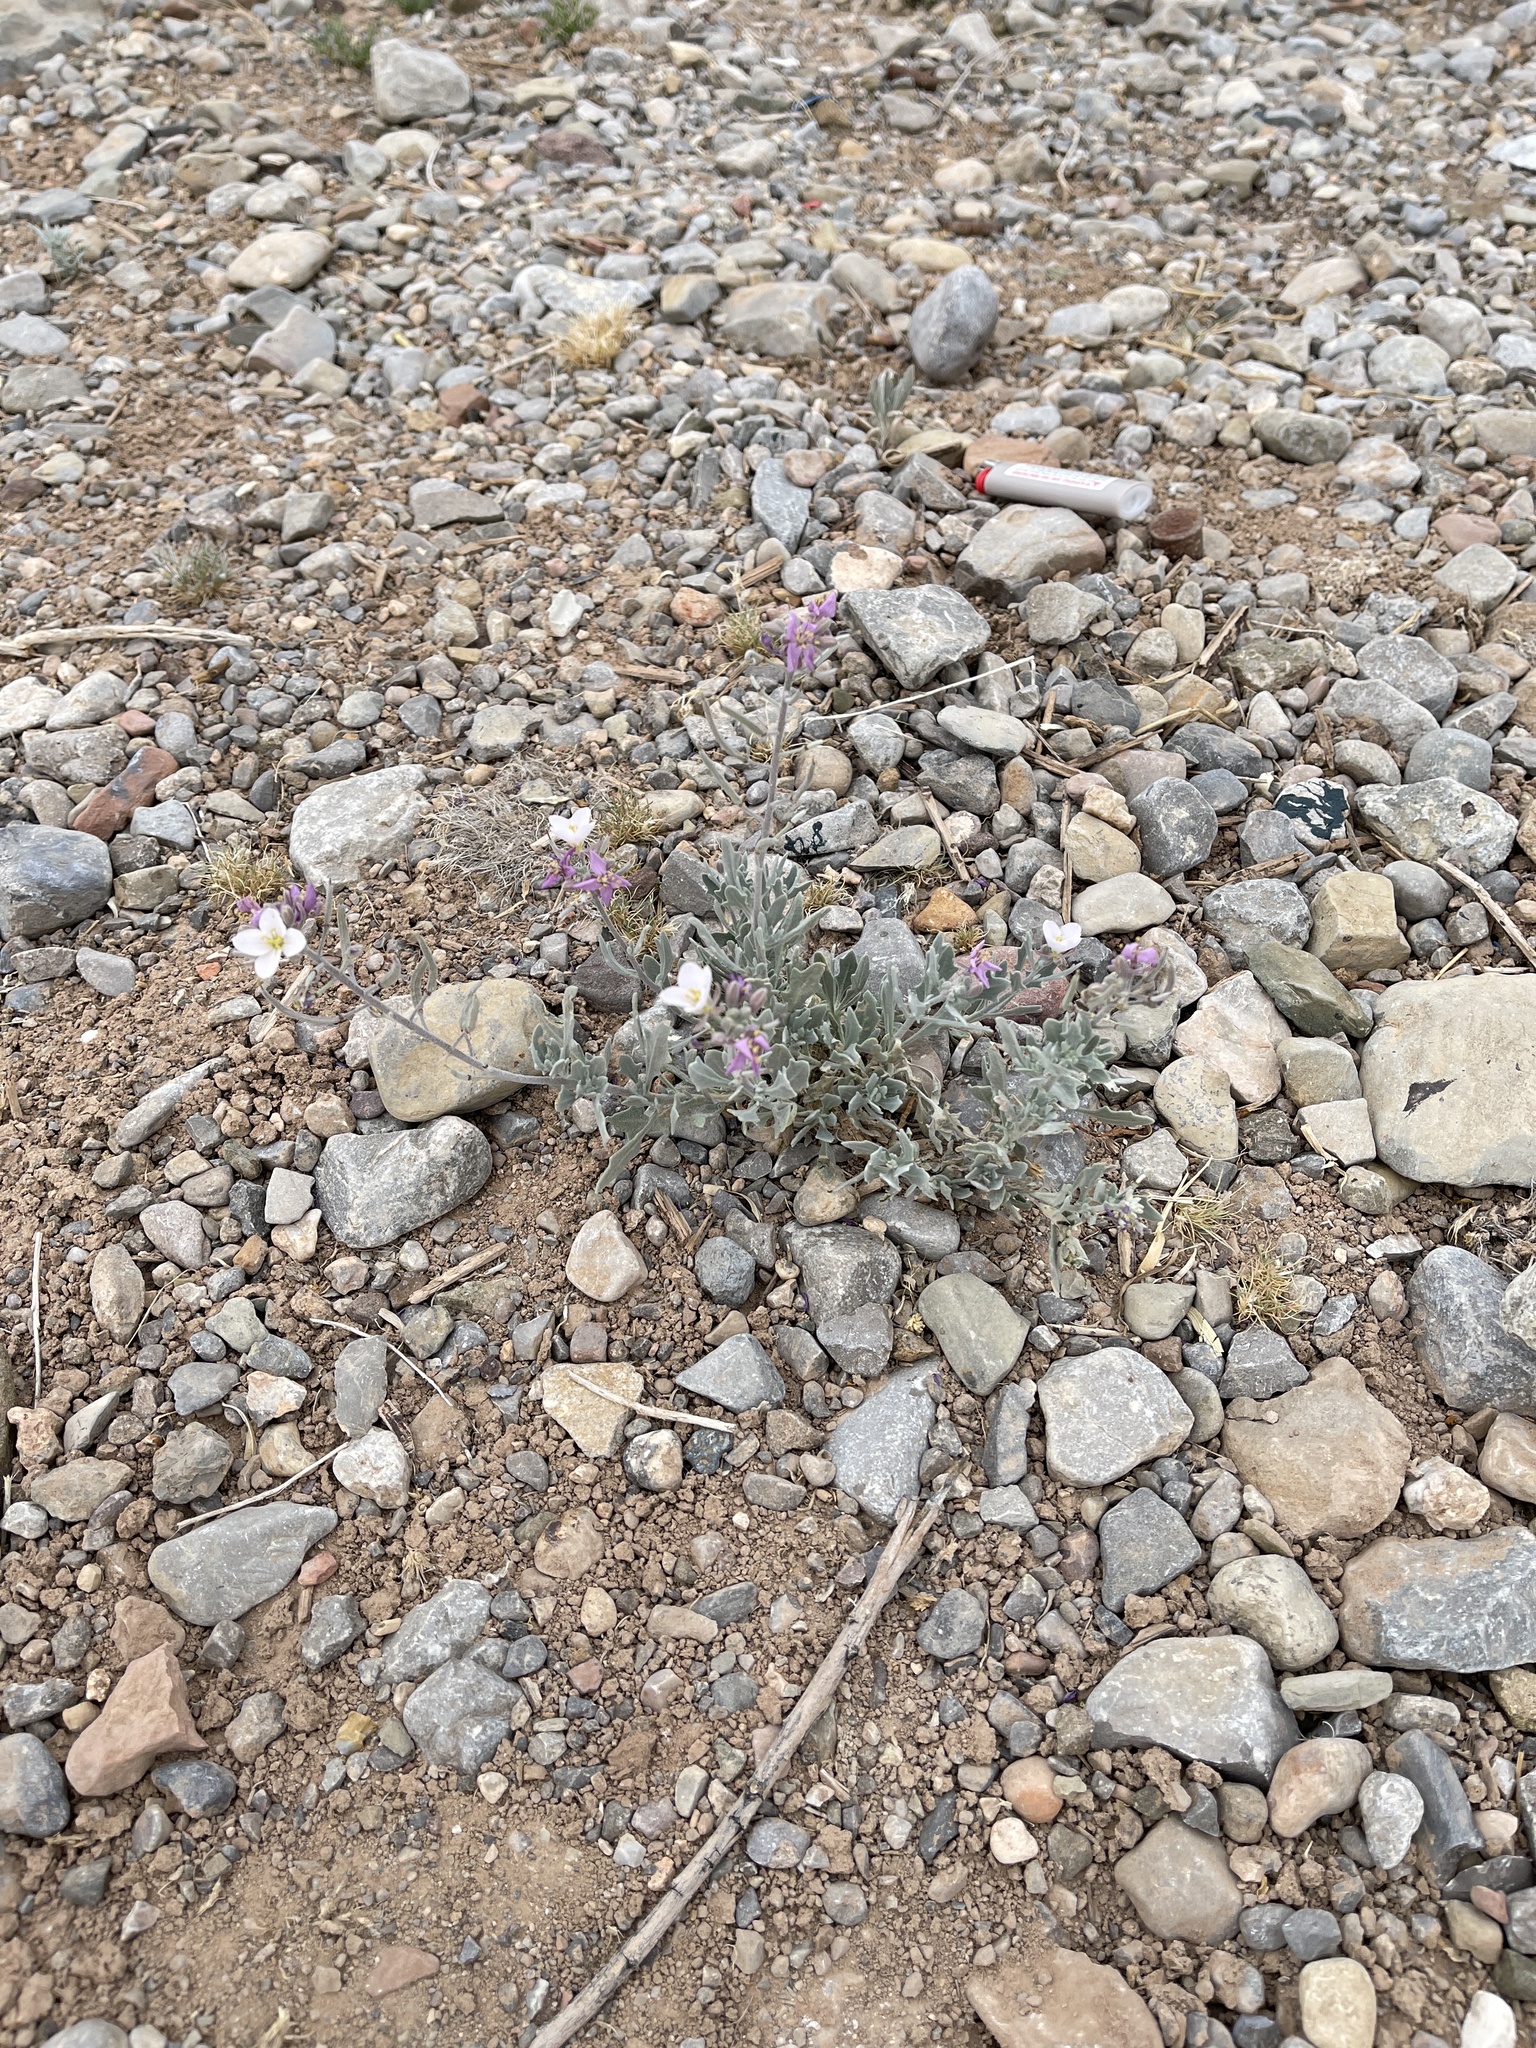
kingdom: Plantae
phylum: Tracheophyta
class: Magnoliopsida
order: Brassicales
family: Brassicaceae
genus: Nerisyrenia
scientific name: Nerisyrenia camporum
